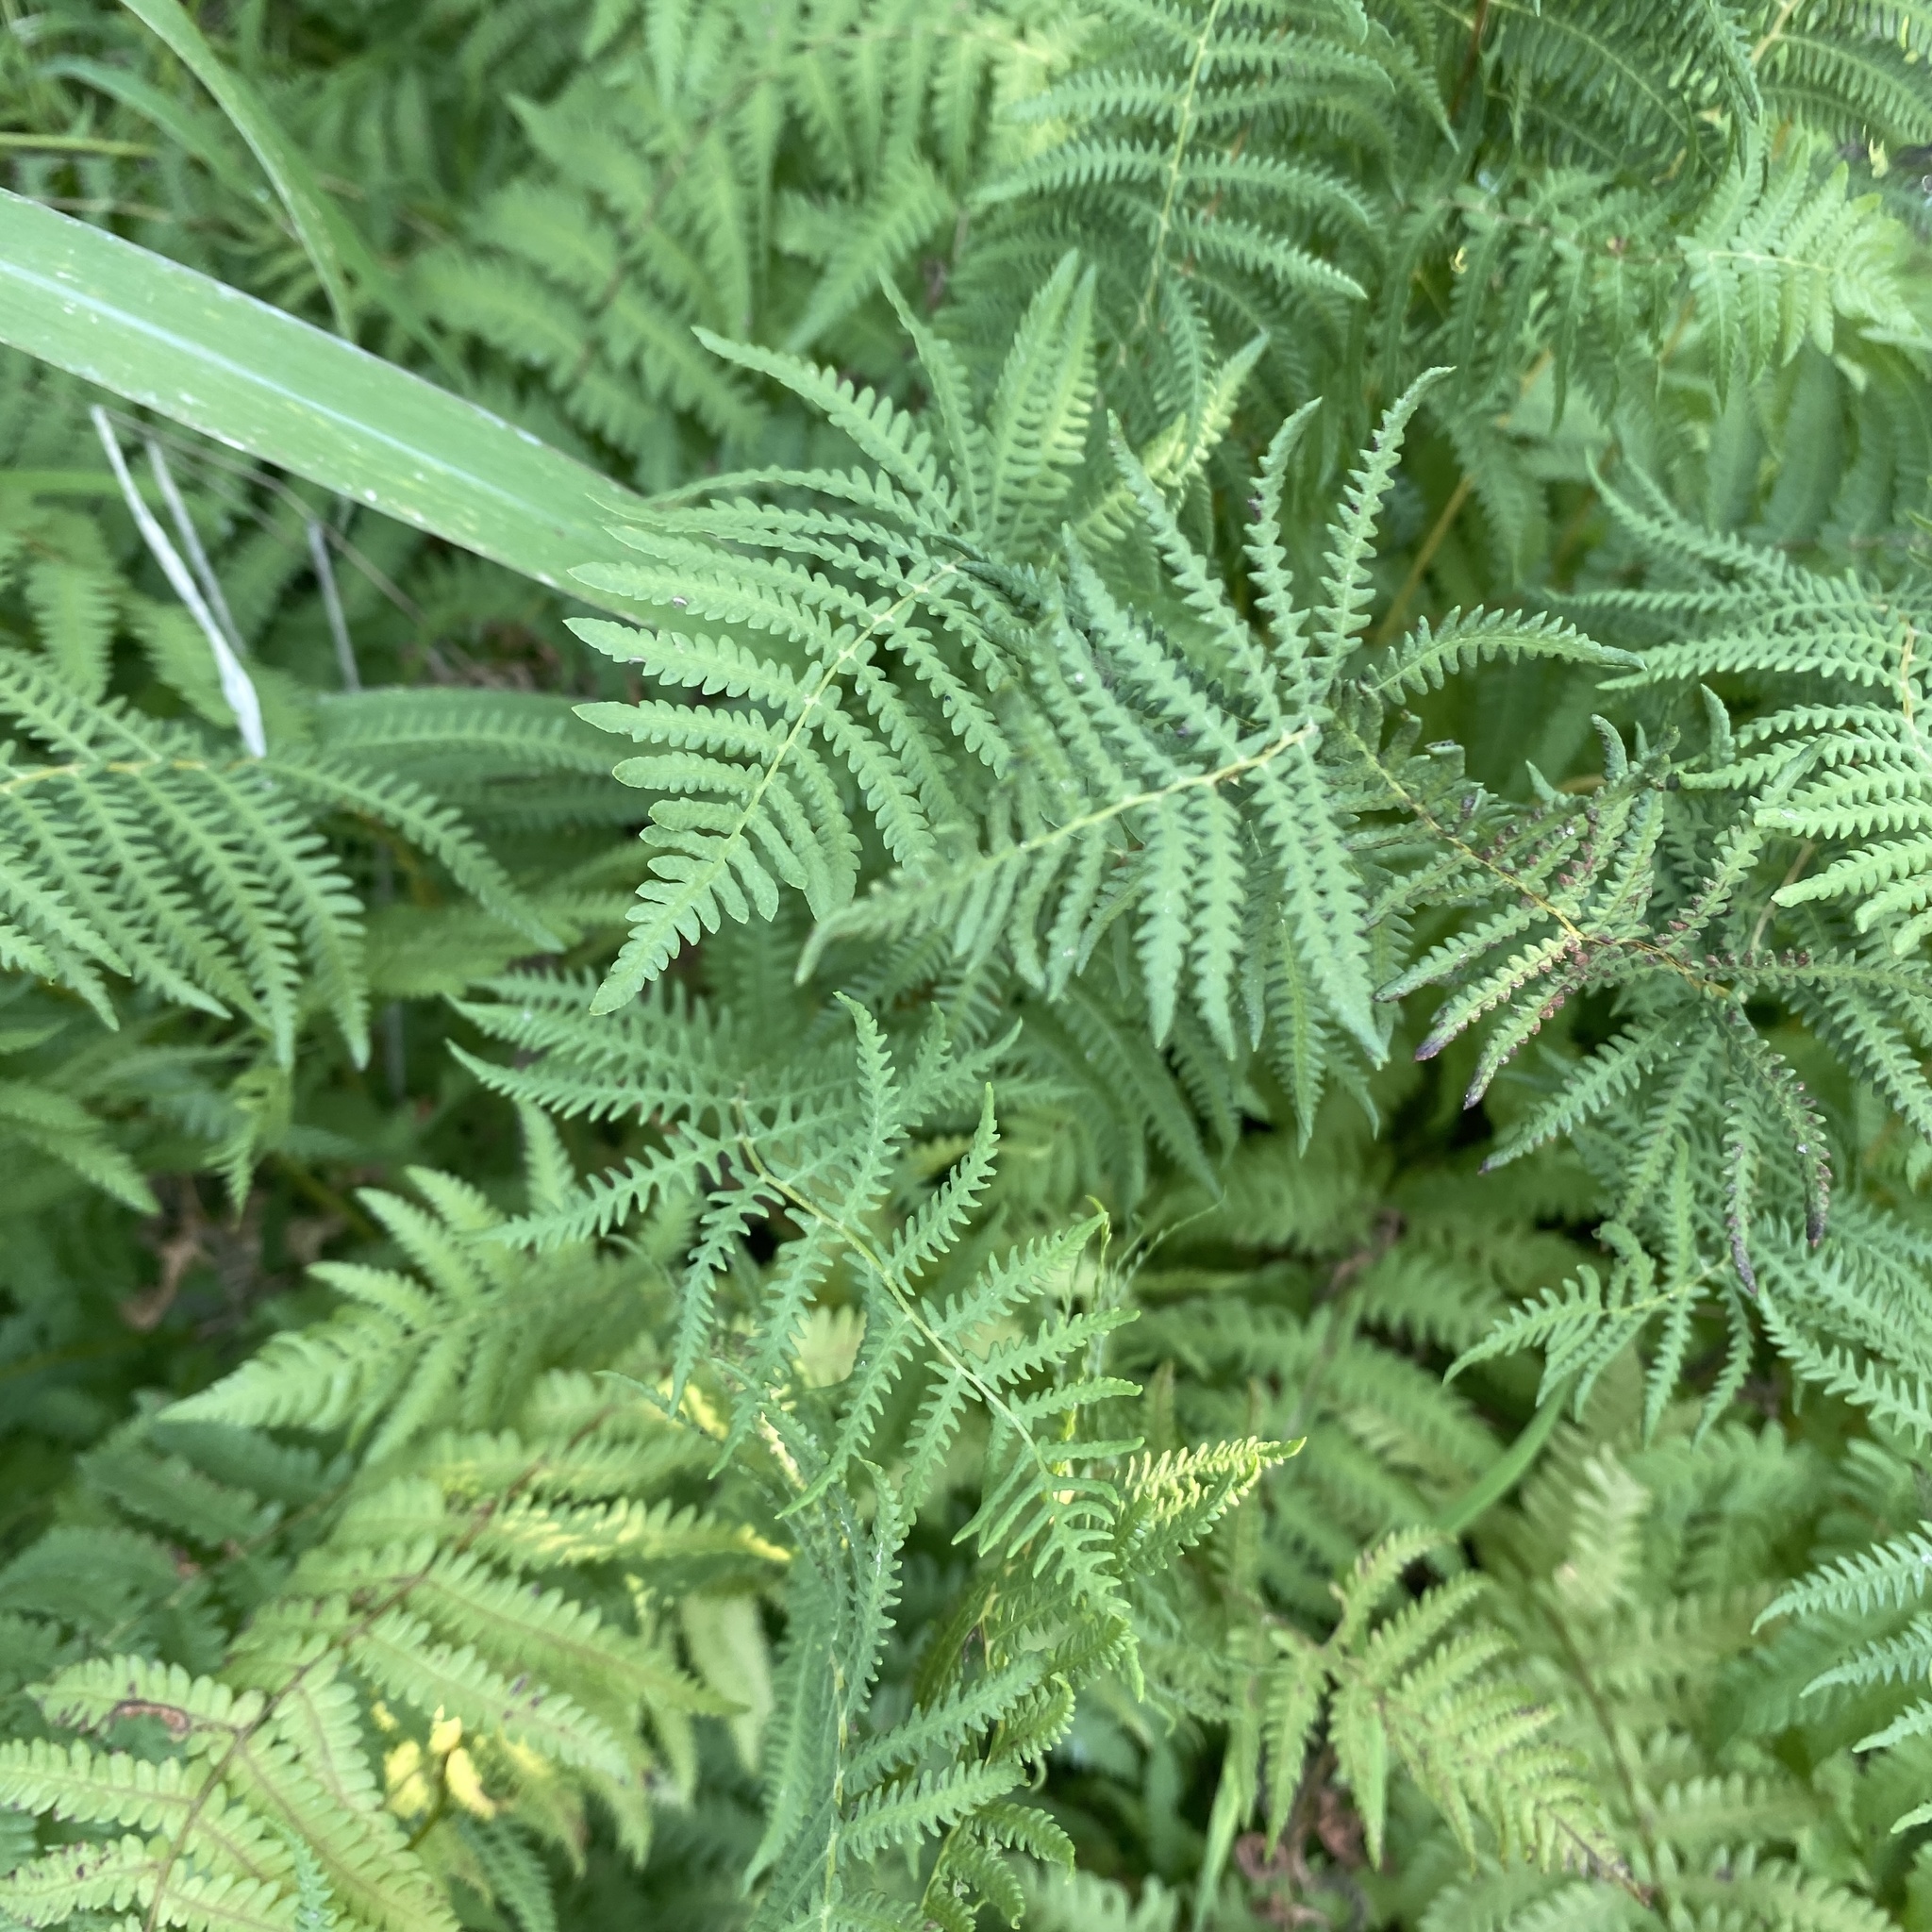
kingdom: Plantae
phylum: Tracheophyta
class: Polypodiopsida
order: Polypodiales
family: Thelypteridaceae
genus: Thelypteris
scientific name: Thelypteris palustris
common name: Marsh fern
